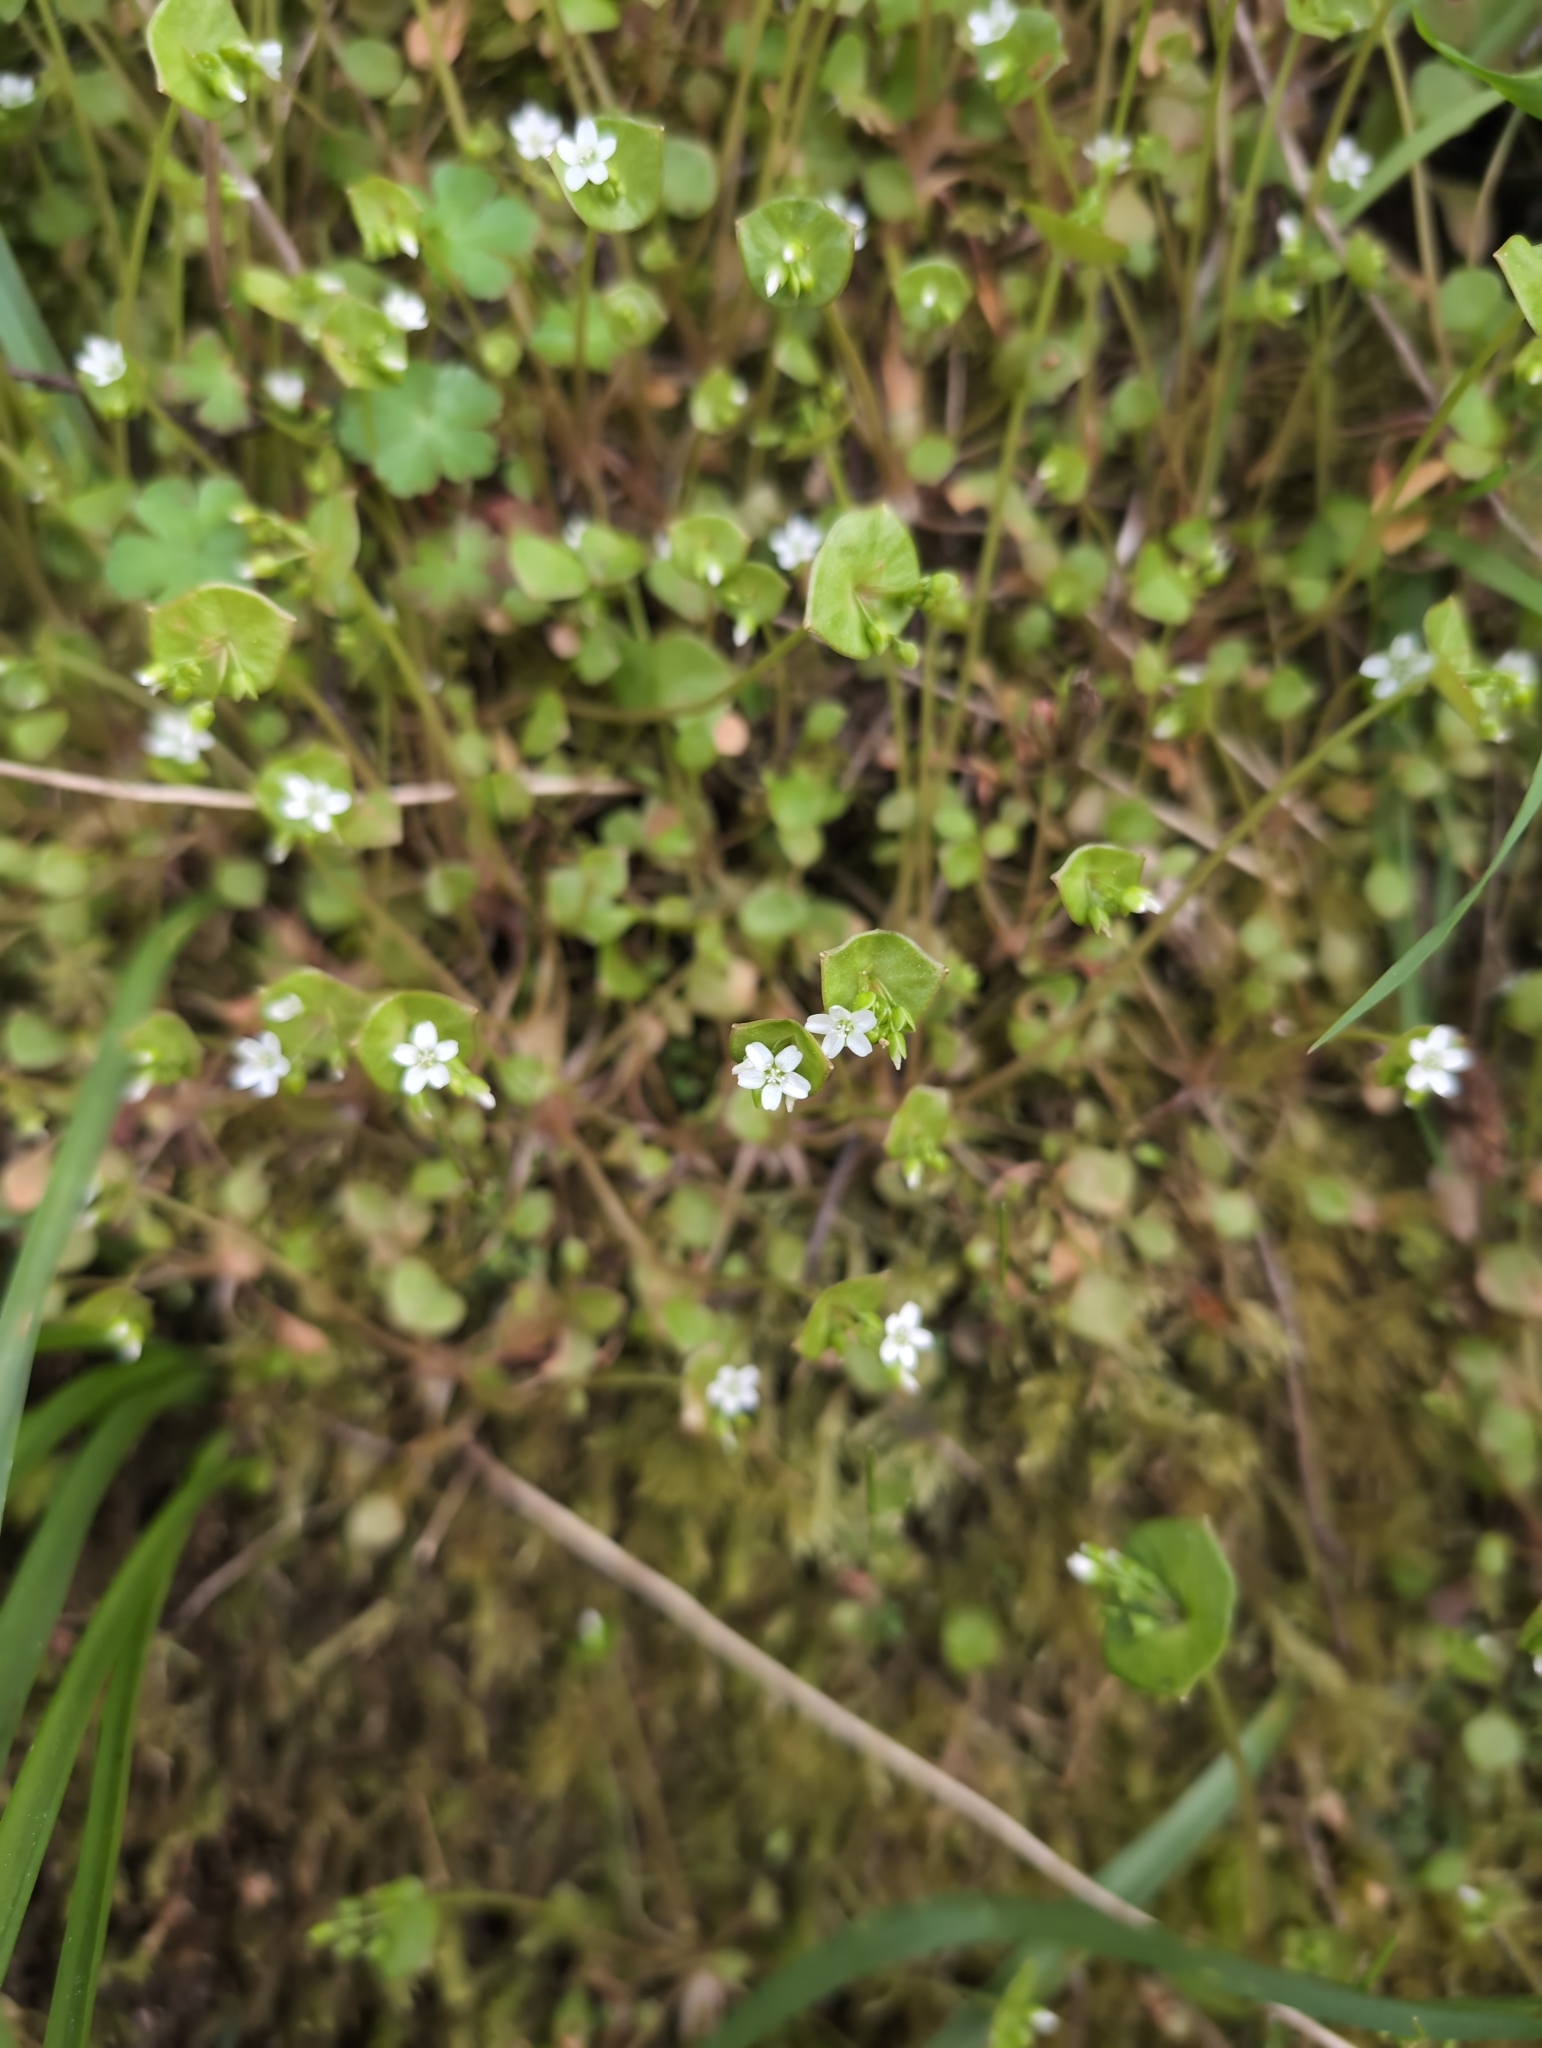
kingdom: Plantae
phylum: Tracheophyta
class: Magnoliopsida
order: Caryophyllales
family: Montiaceae
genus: Claytonia
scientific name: Claytonia perfoliata
